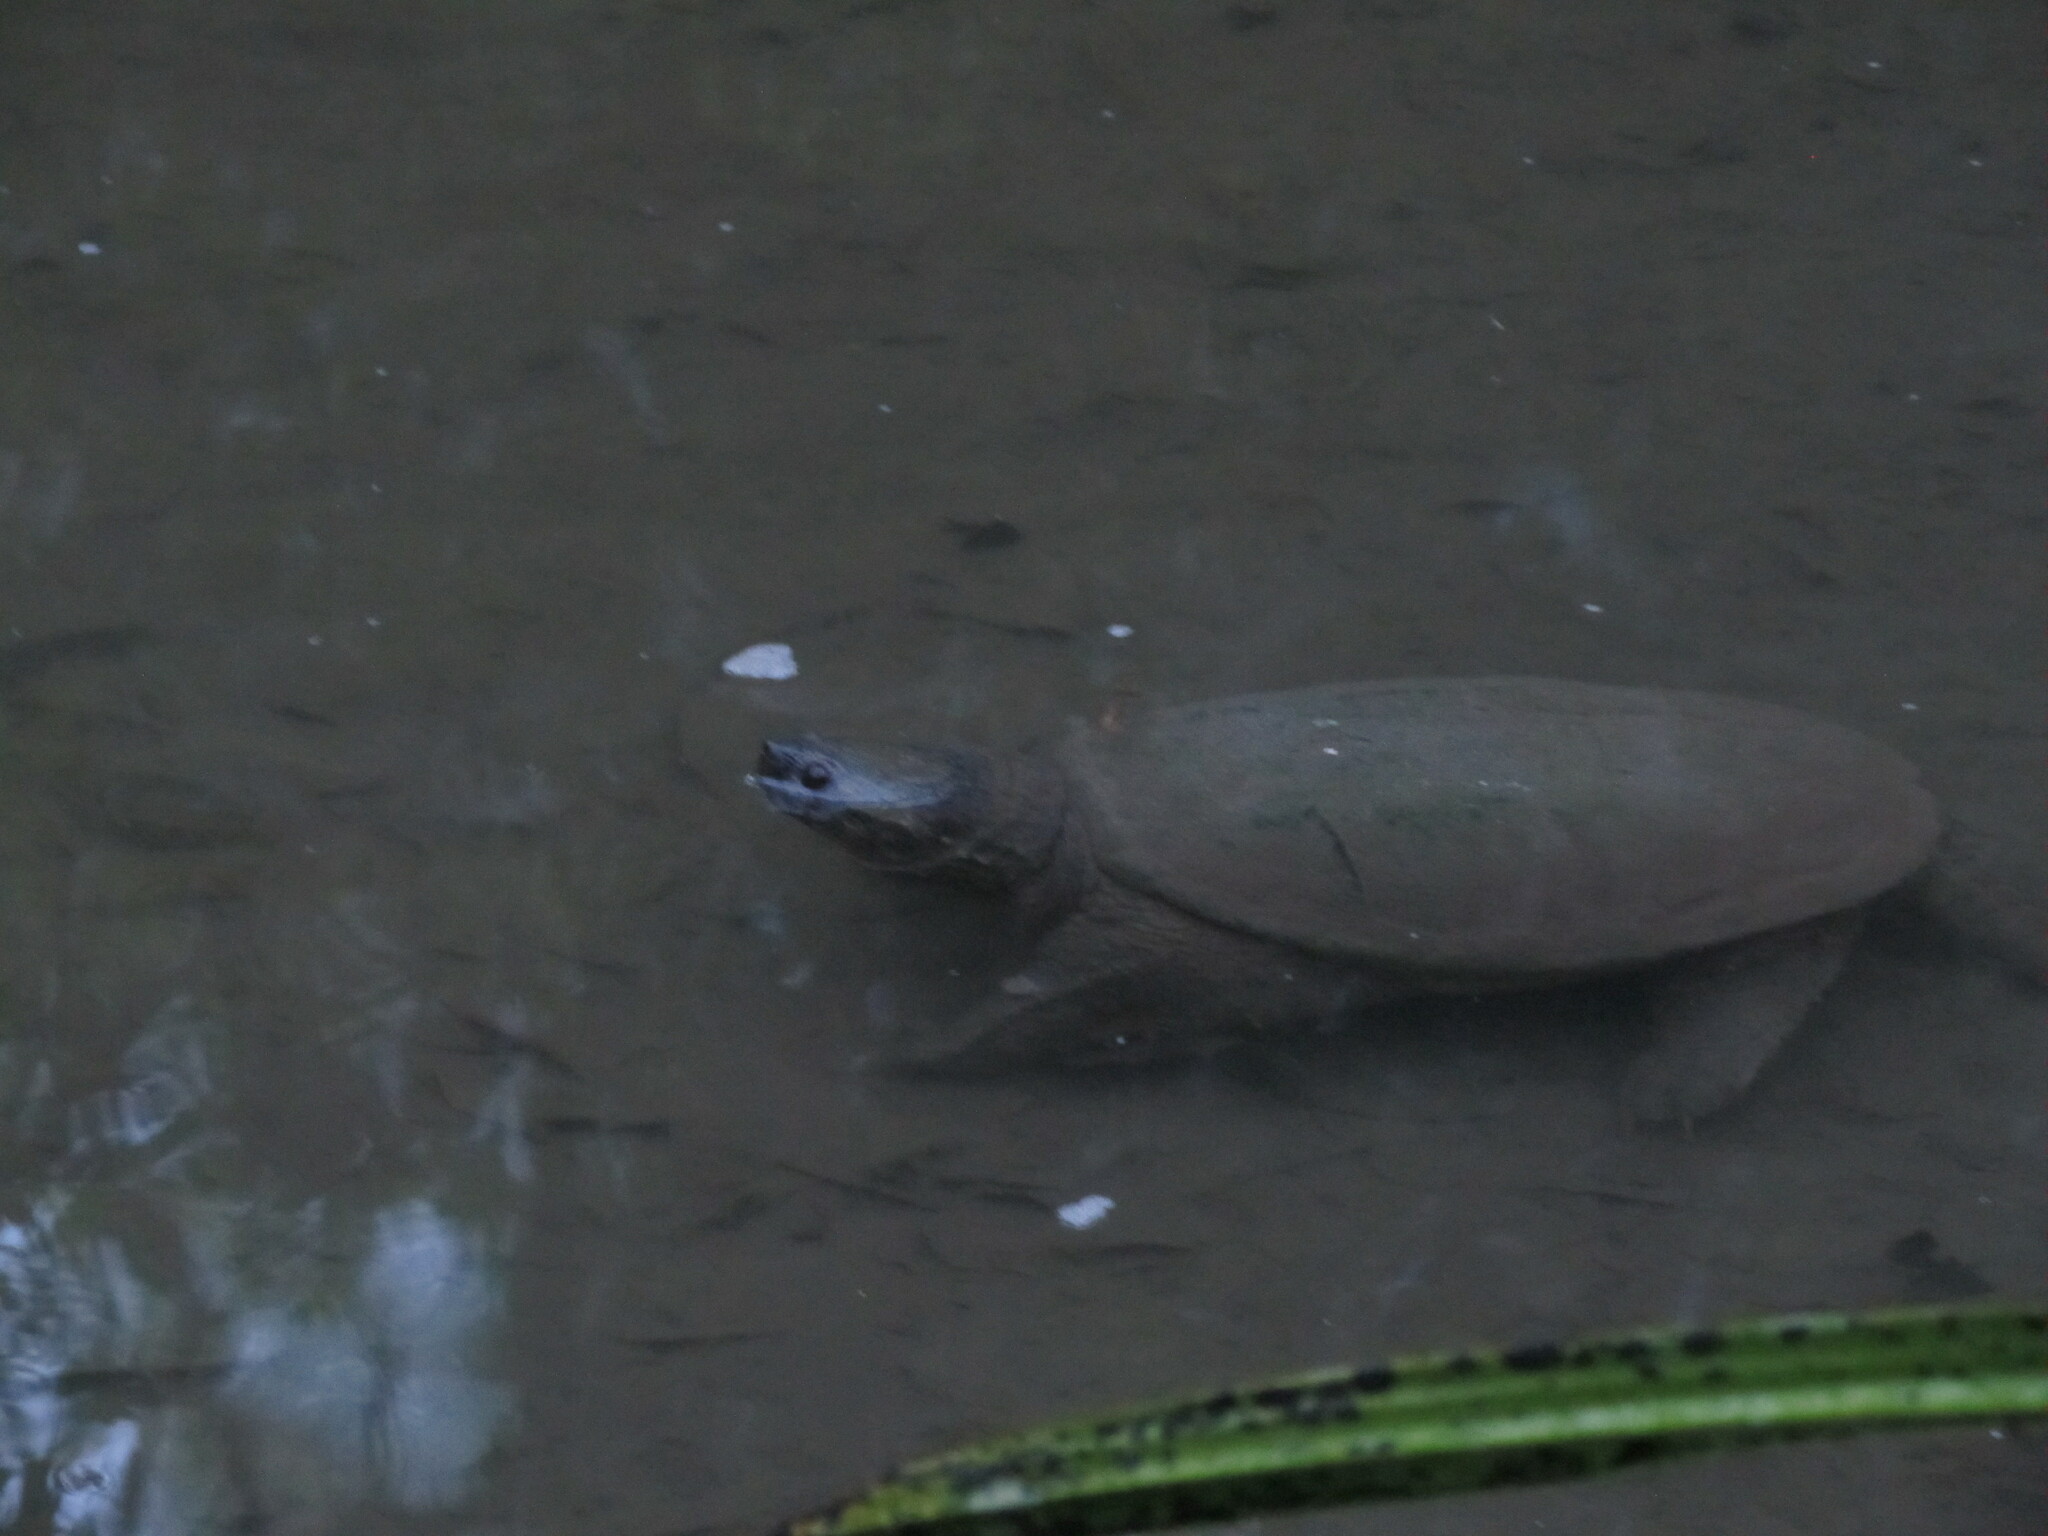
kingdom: Animalia
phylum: Chordata
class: Testudines
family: Chelydridae
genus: Chelydra
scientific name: Chelydra acutirostris
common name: South american snapping turtle
